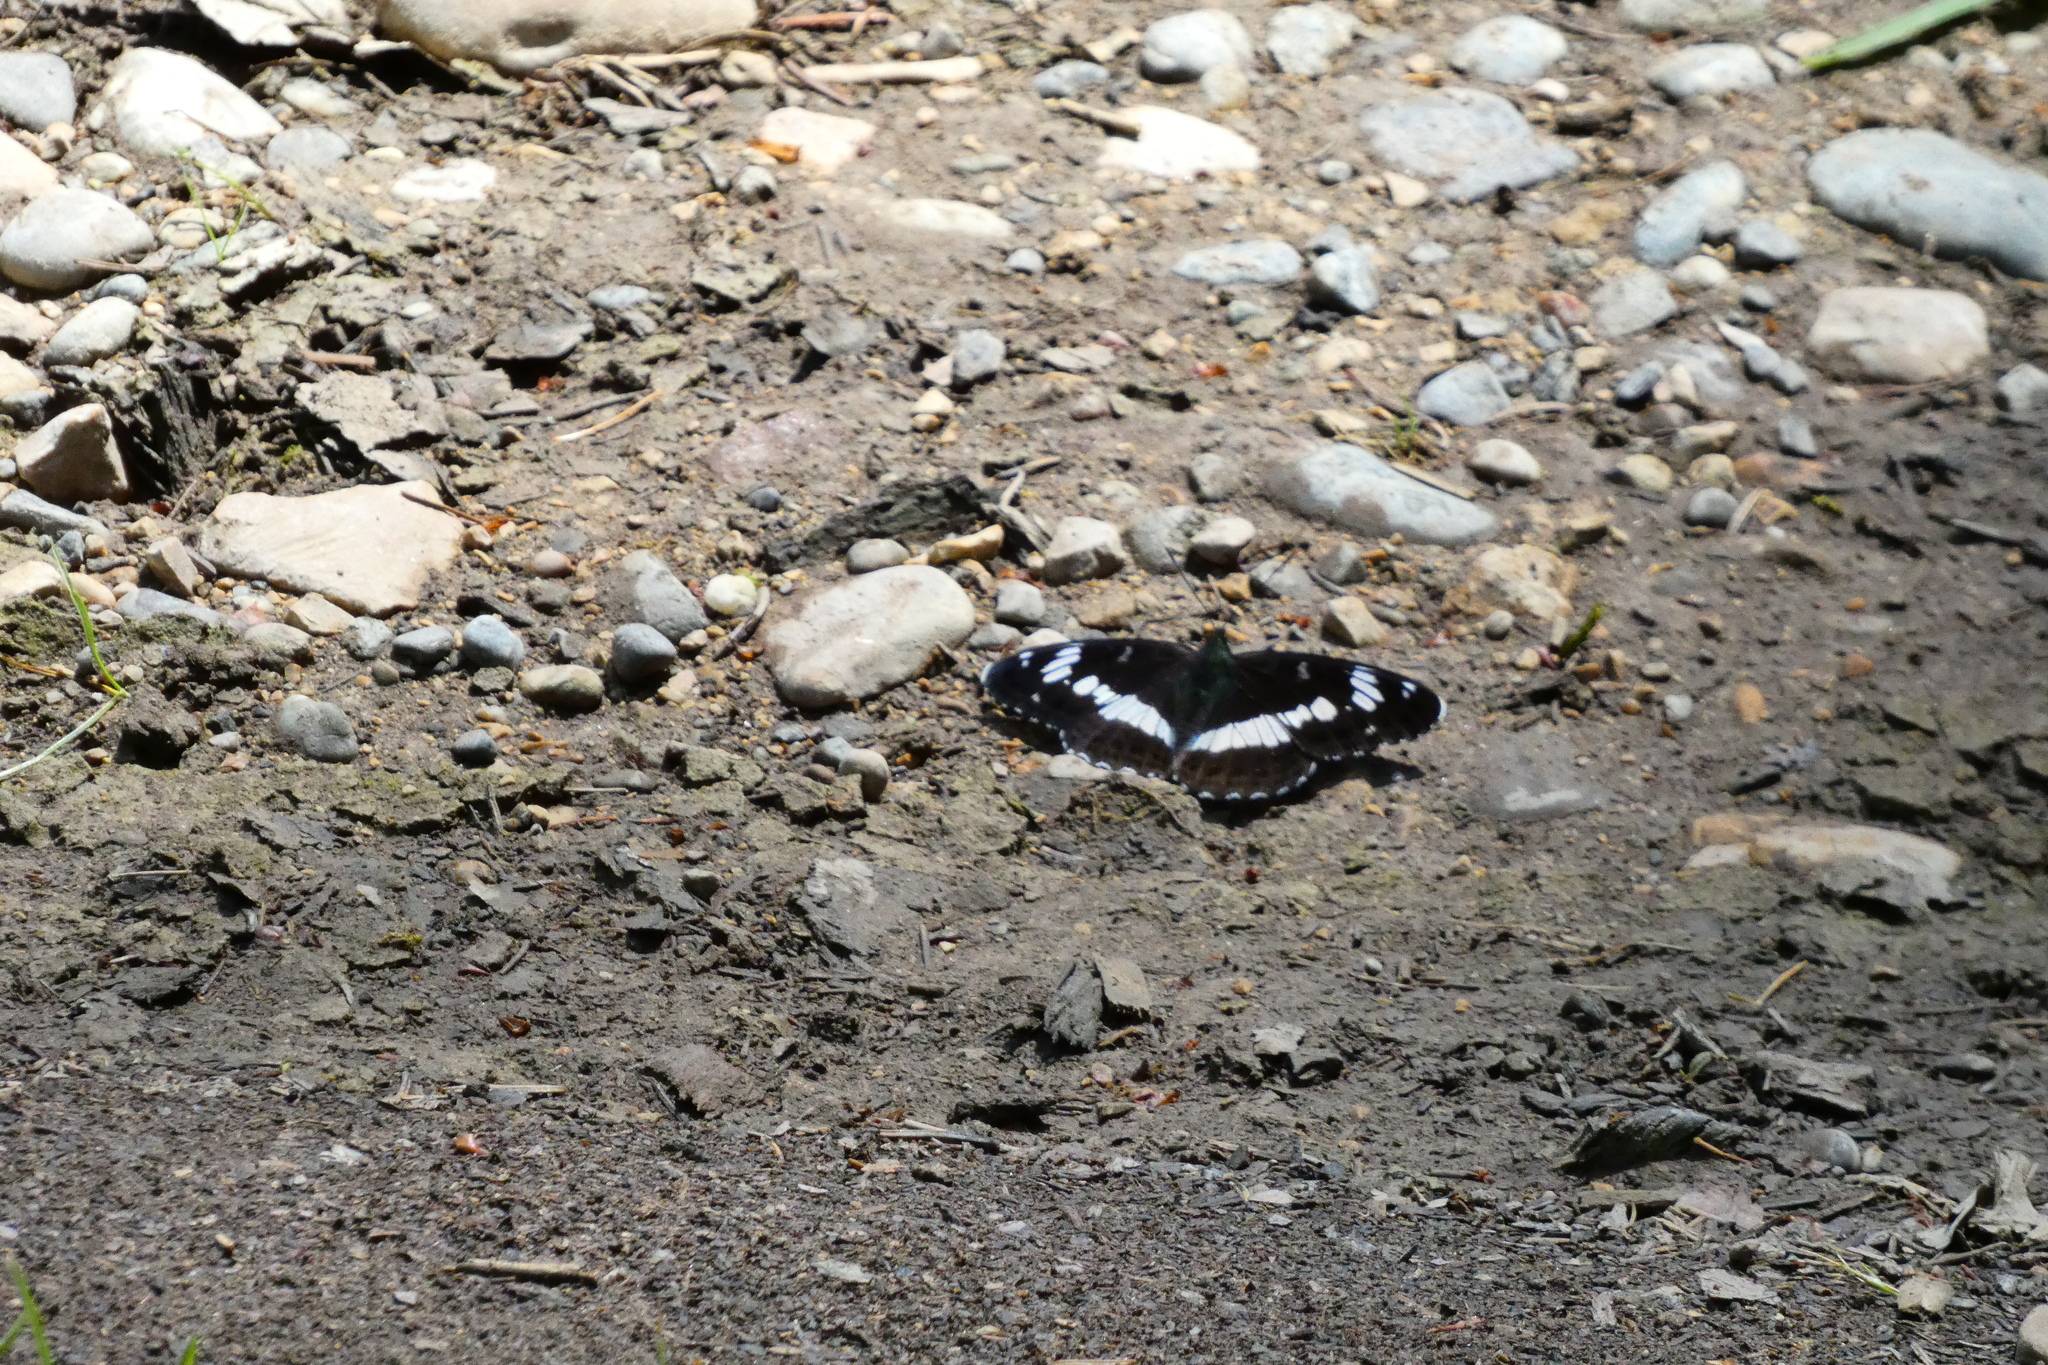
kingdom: Animalia
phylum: Arthropoda
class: Insecta
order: Lepidoptera
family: Nymphalidae
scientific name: Nymphalidae
